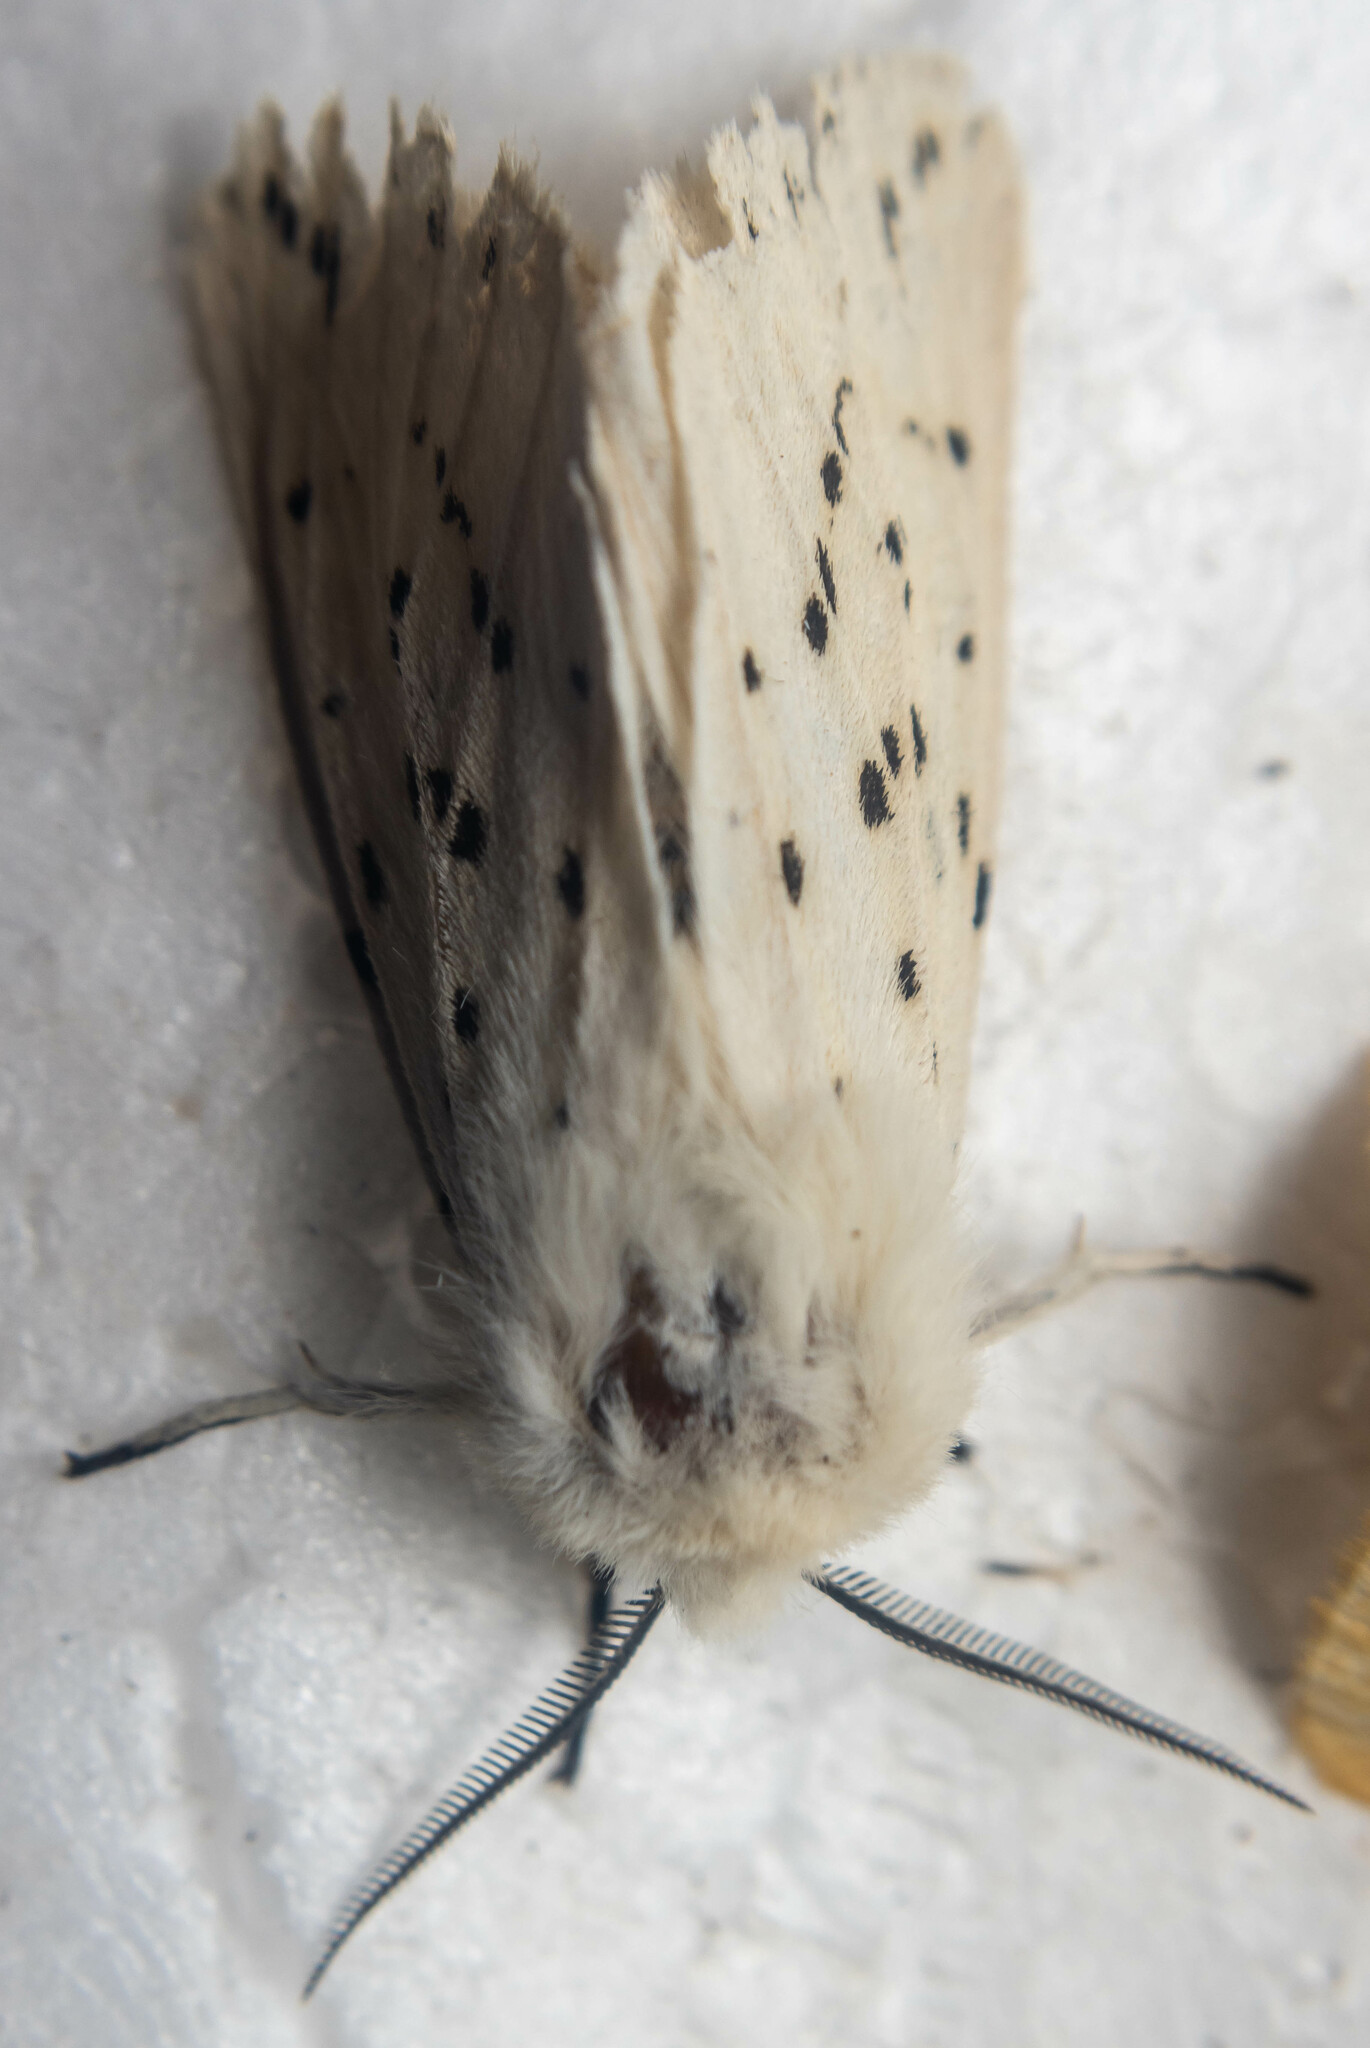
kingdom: Animalia
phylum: Arthropoda
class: Insecta
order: Lepidoptera
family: Erebidae
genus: Spilosoma
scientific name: Spilosoma lubricipeda
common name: White ermine
